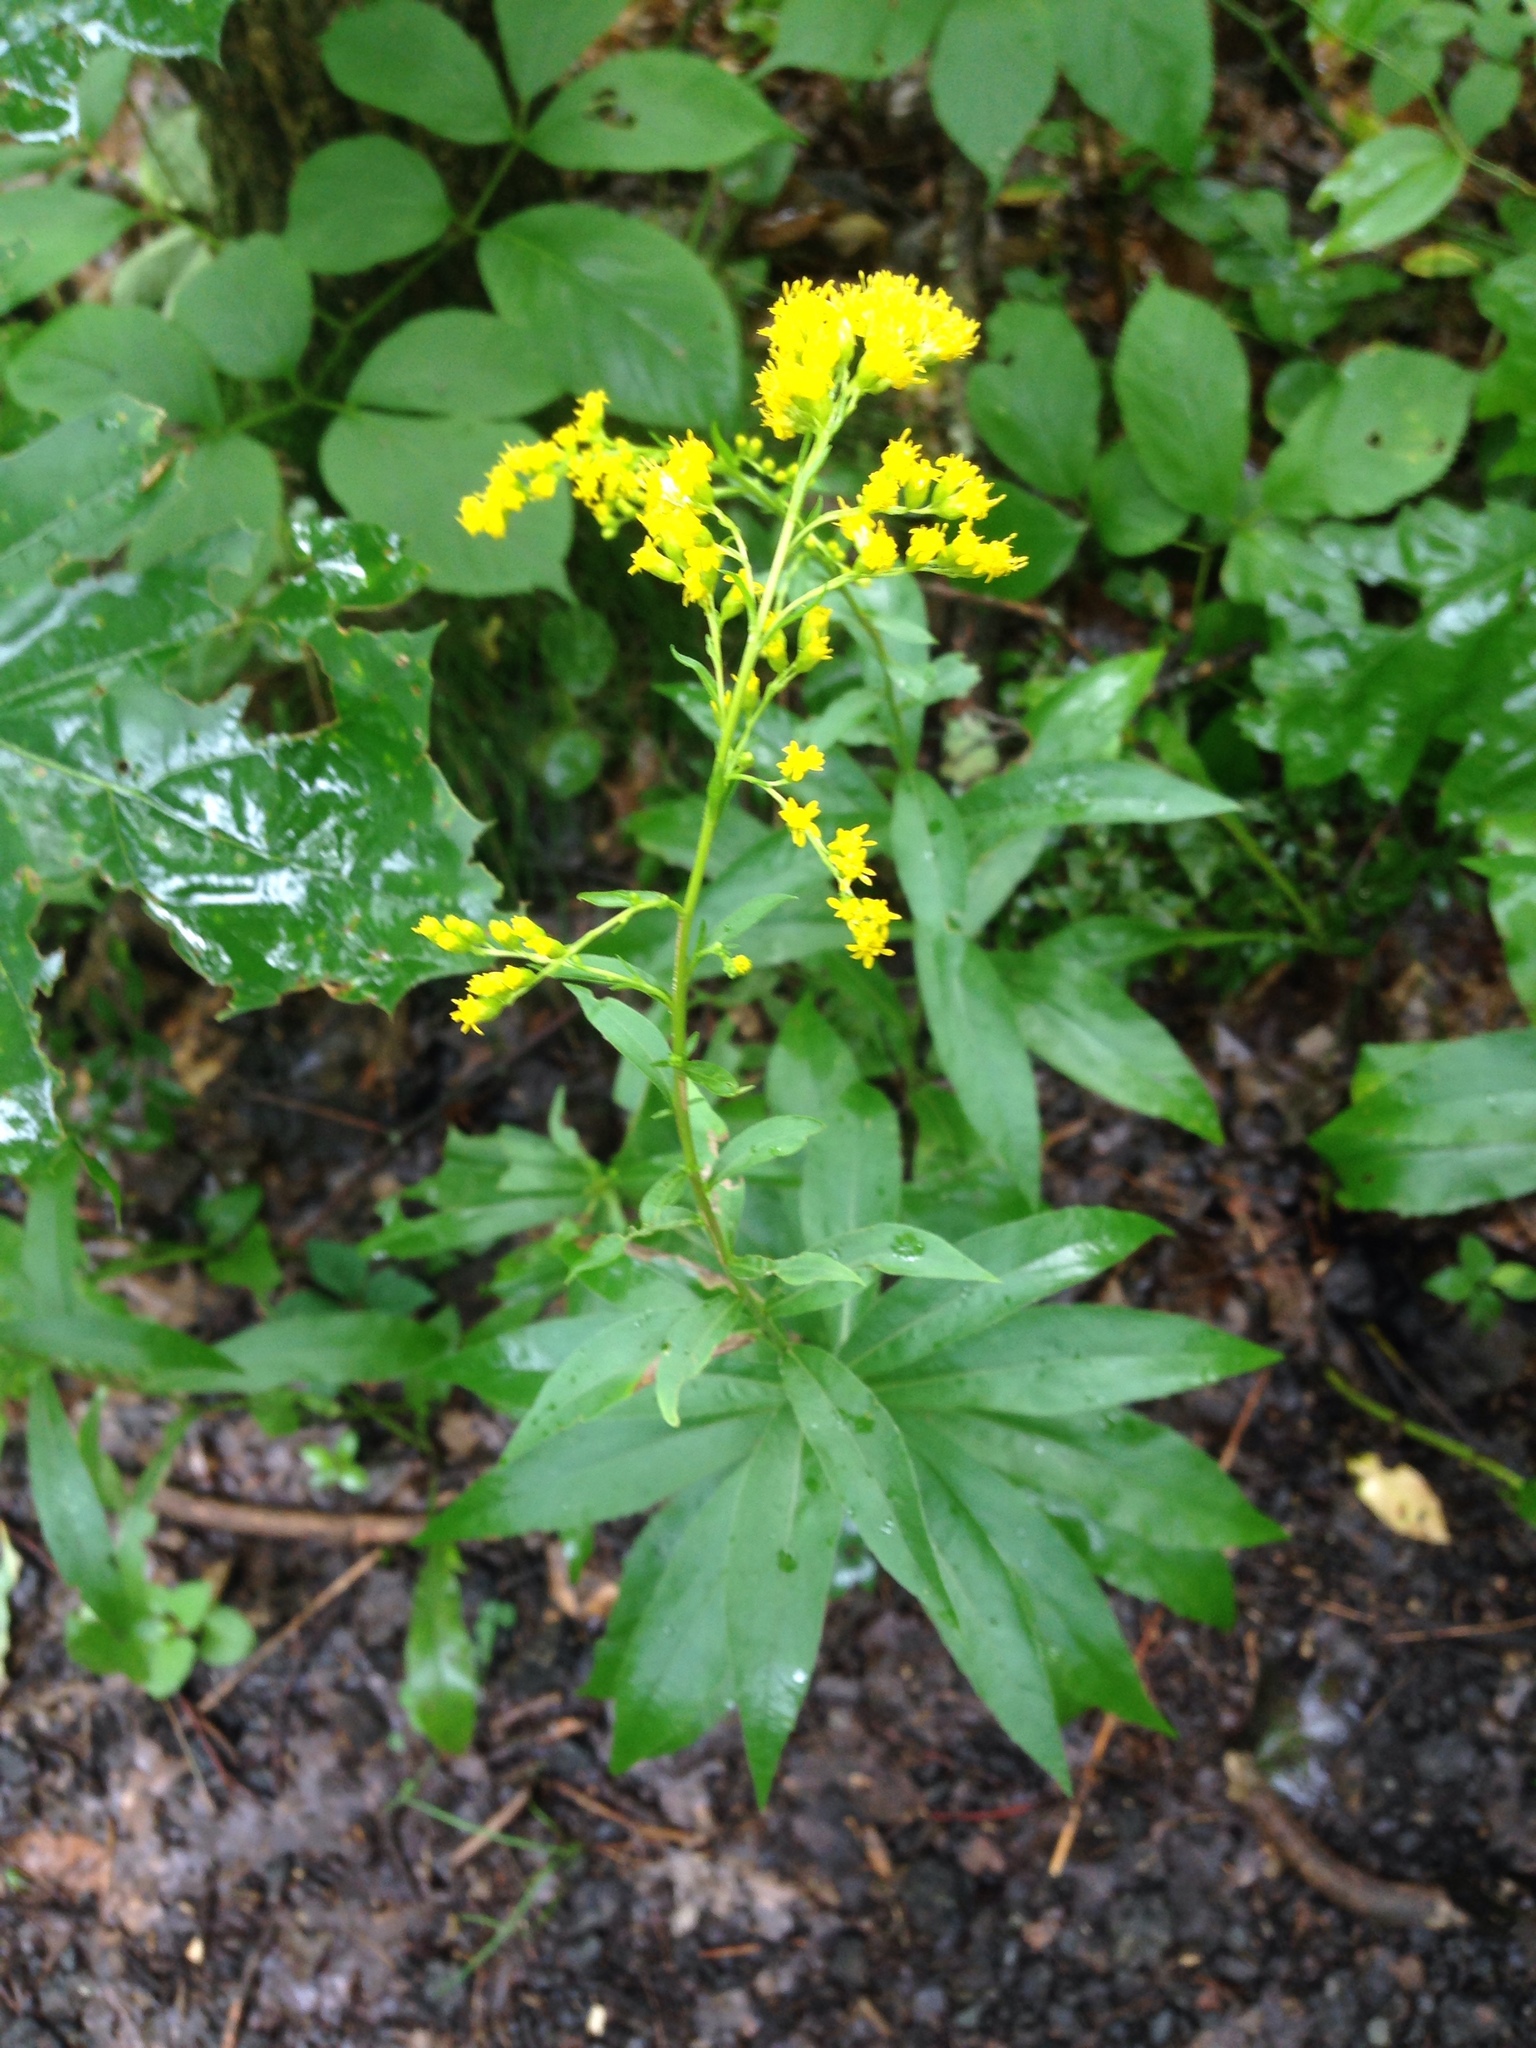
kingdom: Plantae
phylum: Tracheophyta
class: Magnoliopsida
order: Asterales
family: Asteraceae
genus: Solidago
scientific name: Solidago juncea
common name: Early goldenrod
